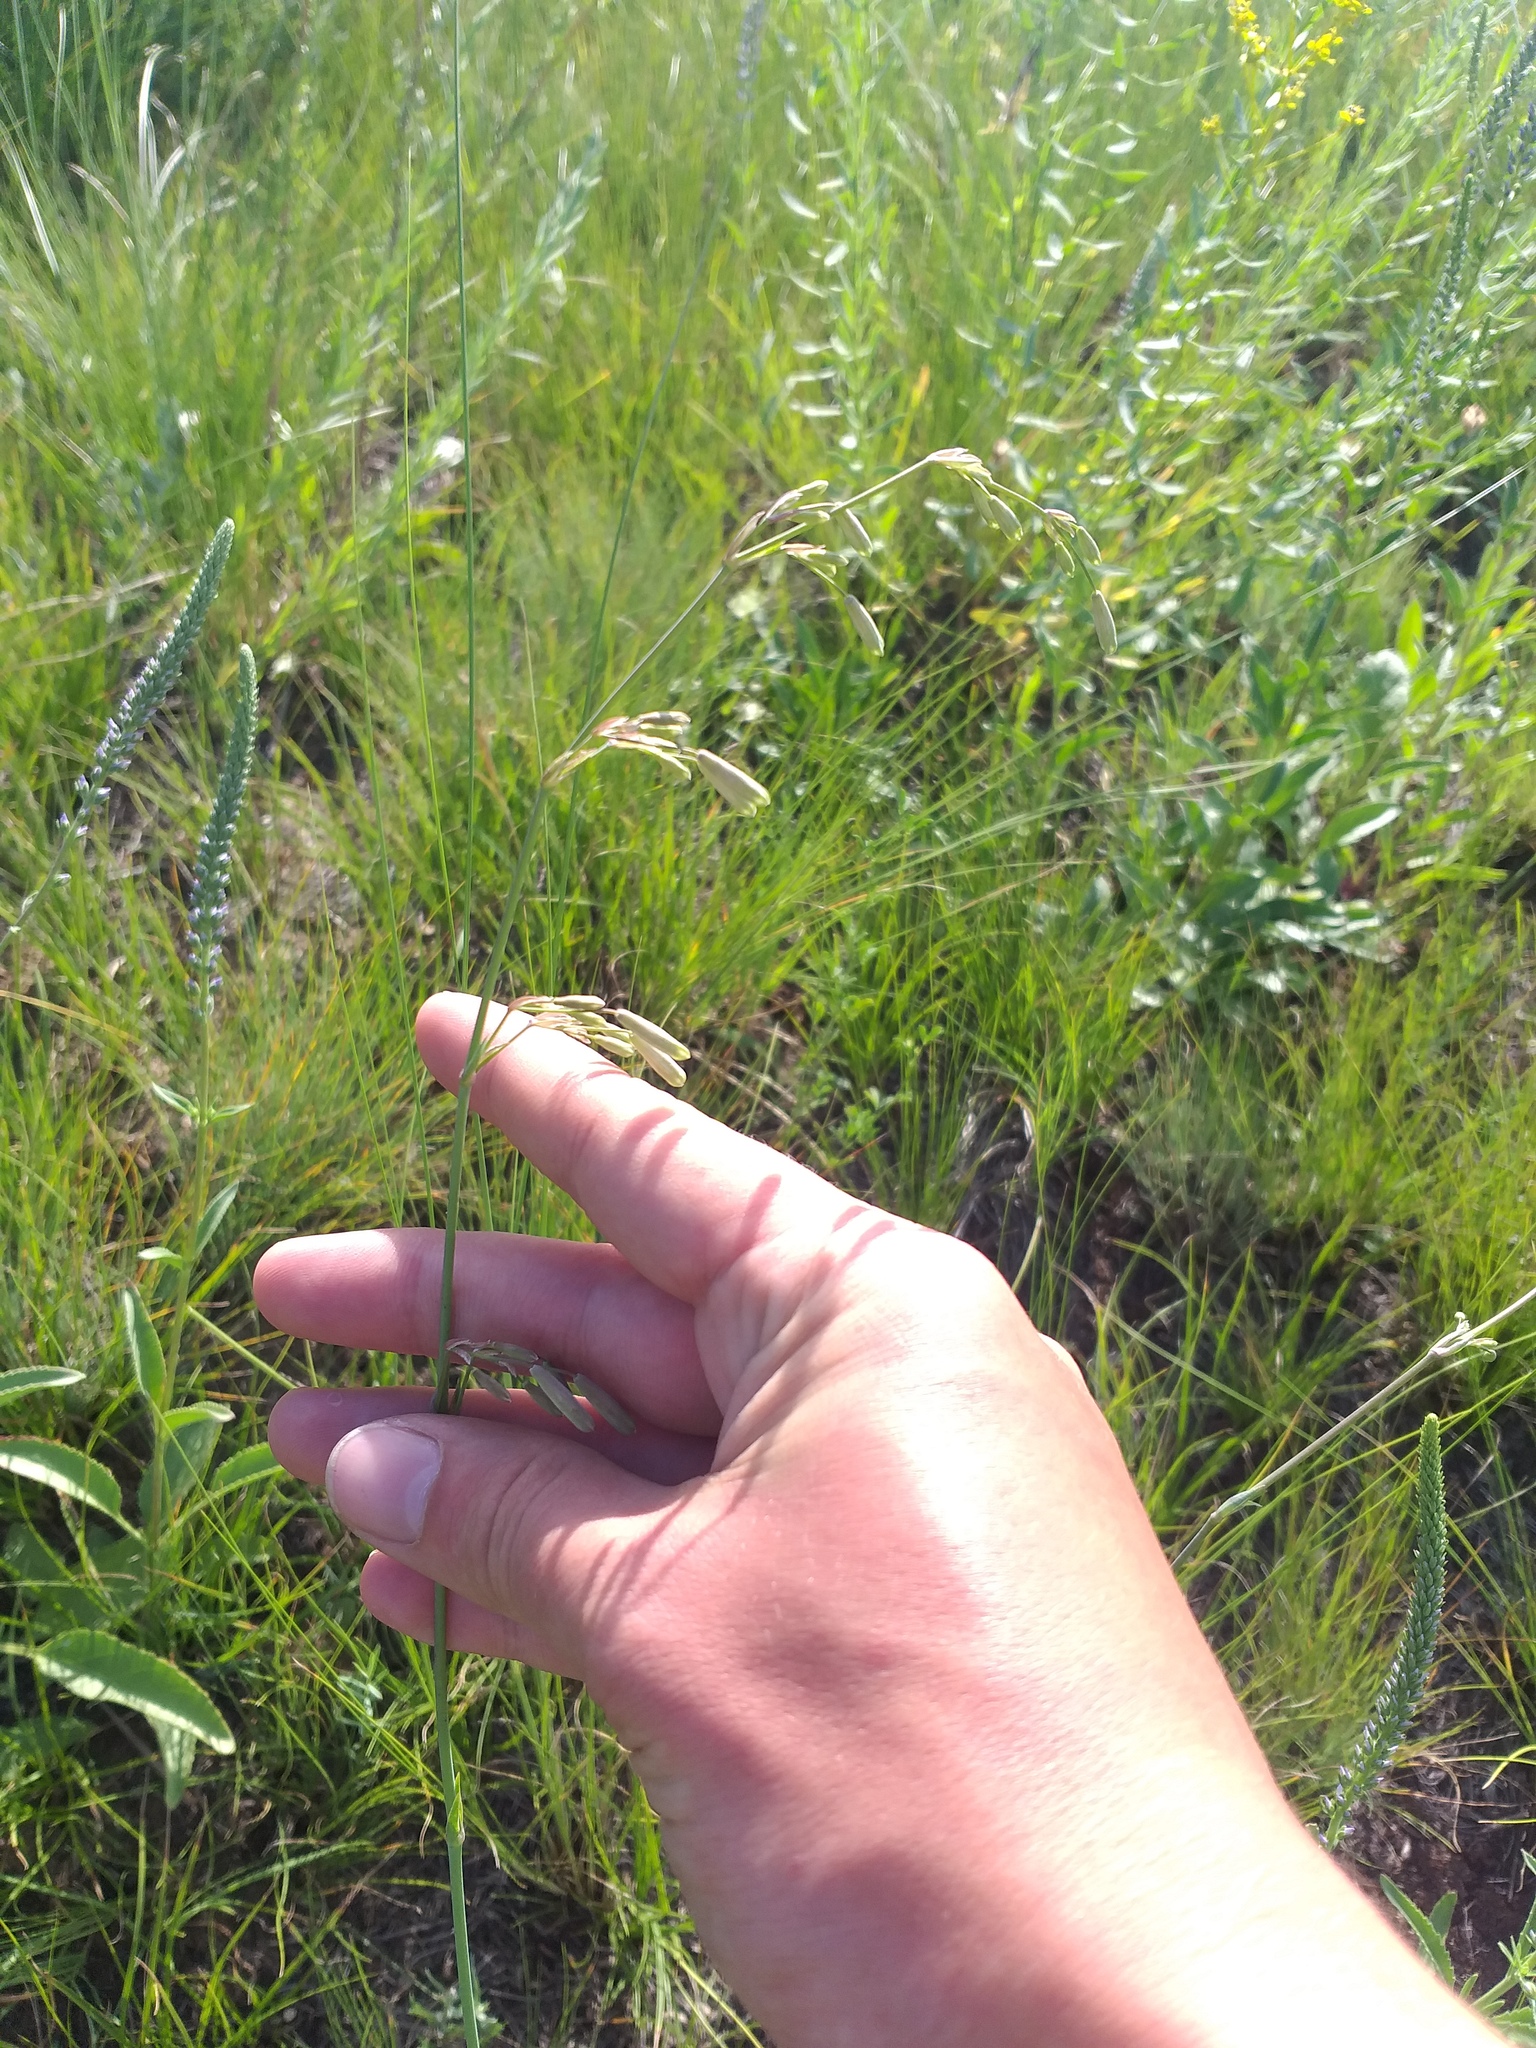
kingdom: Plantae
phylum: Tracheophyta
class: Magnoliopsida
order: Caryophyllales
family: Caryophyllaceae
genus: Silene
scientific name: Silene chlorantha
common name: Yellowgreen catchfly
